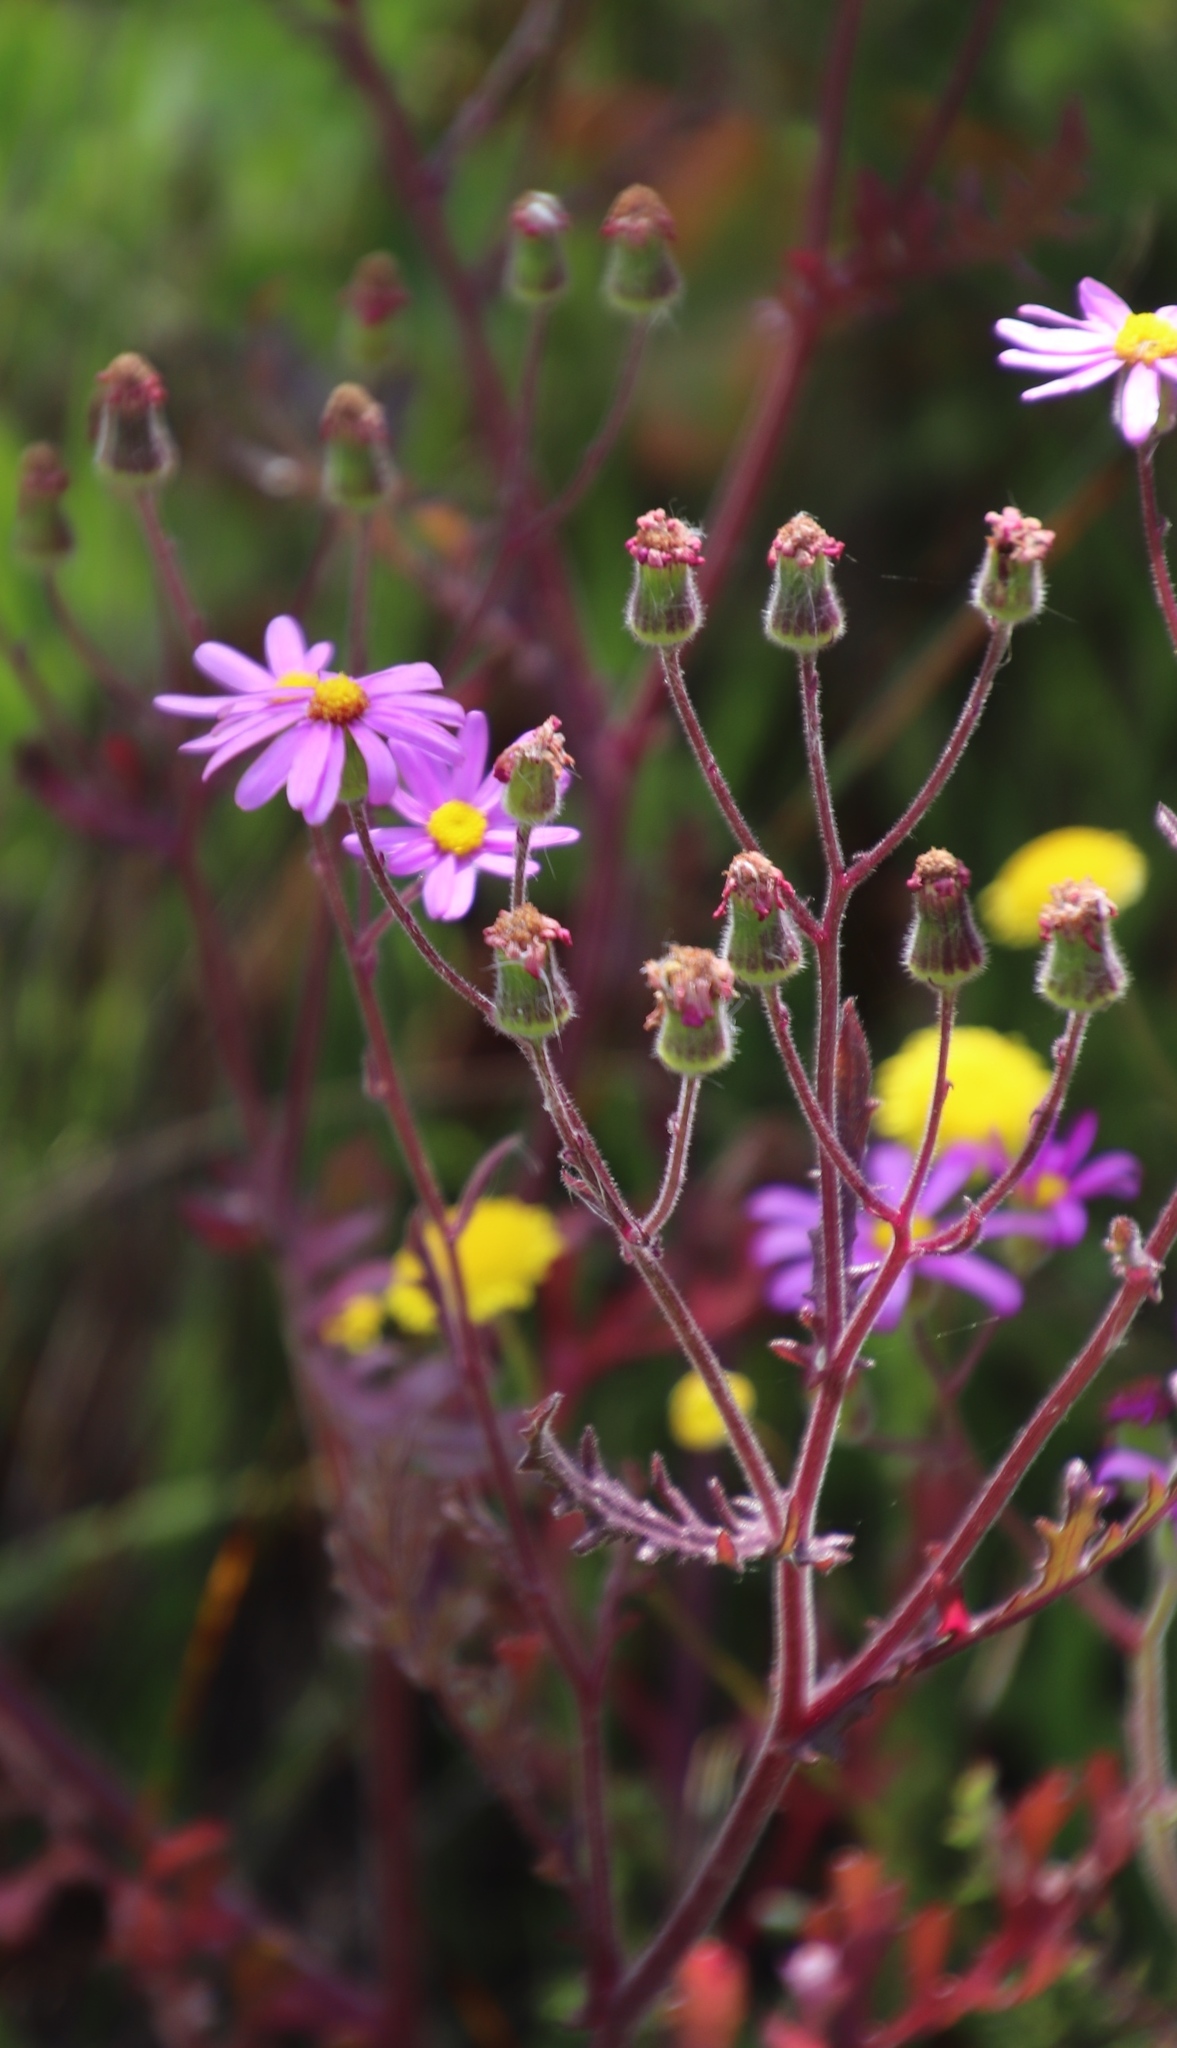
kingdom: Plantae
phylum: Tracheophyta
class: Magnoliopsida
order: Asterales
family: Asteraceae
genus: Senecio
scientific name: Senecio arenarius
